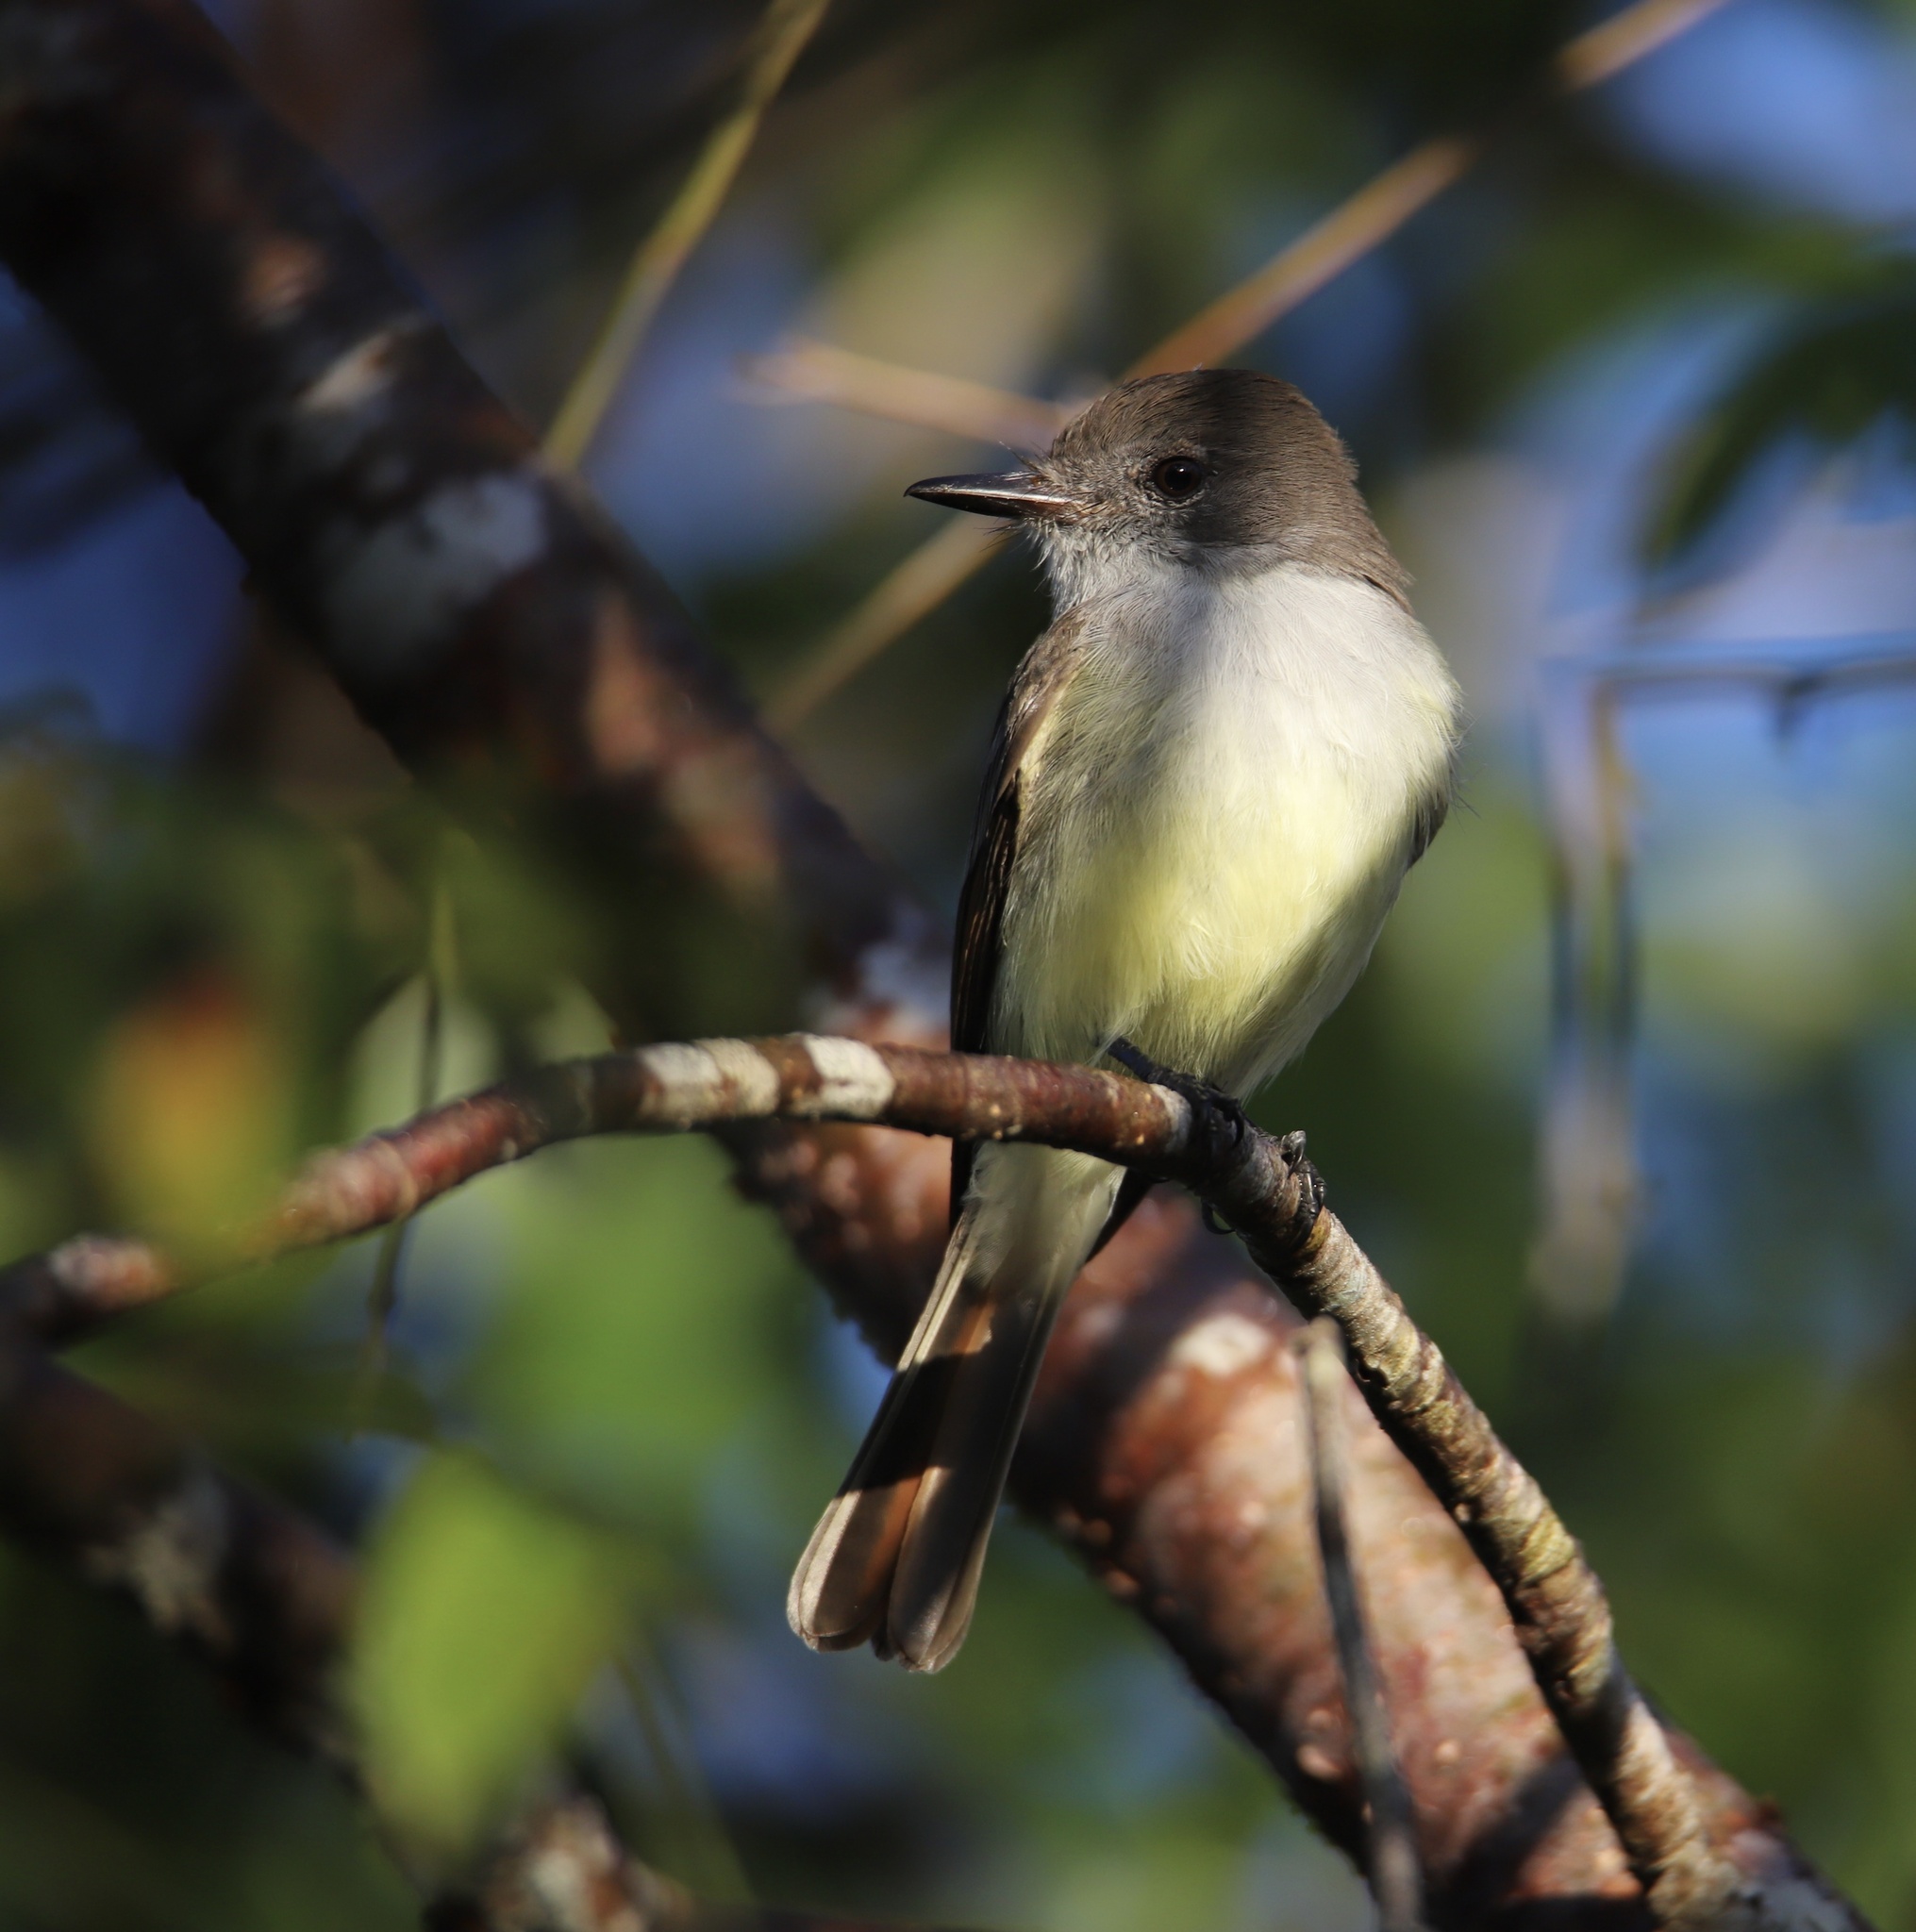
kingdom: Animalia
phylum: Chordata
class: Aves
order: Passeriformes
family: Tyrannidae
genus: Myiarchus
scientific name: Myiarchus stolidus
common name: Stolid flycatcher
